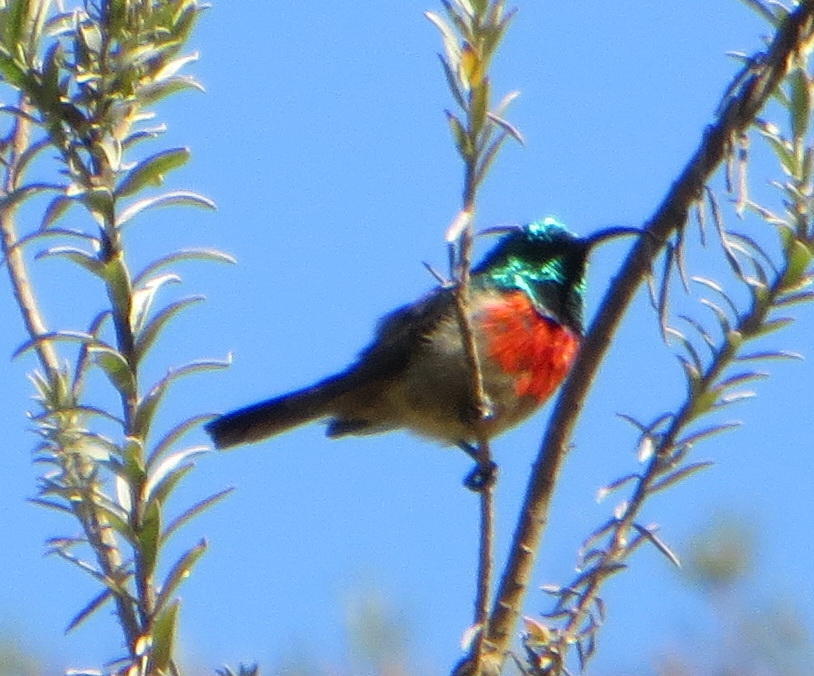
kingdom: Animalia
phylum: Chordata
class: Aves
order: Passeriformes
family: Nectariniidae
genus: Cinnyris
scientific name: Cinnyris afer
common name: Greater double-collared sunbird
